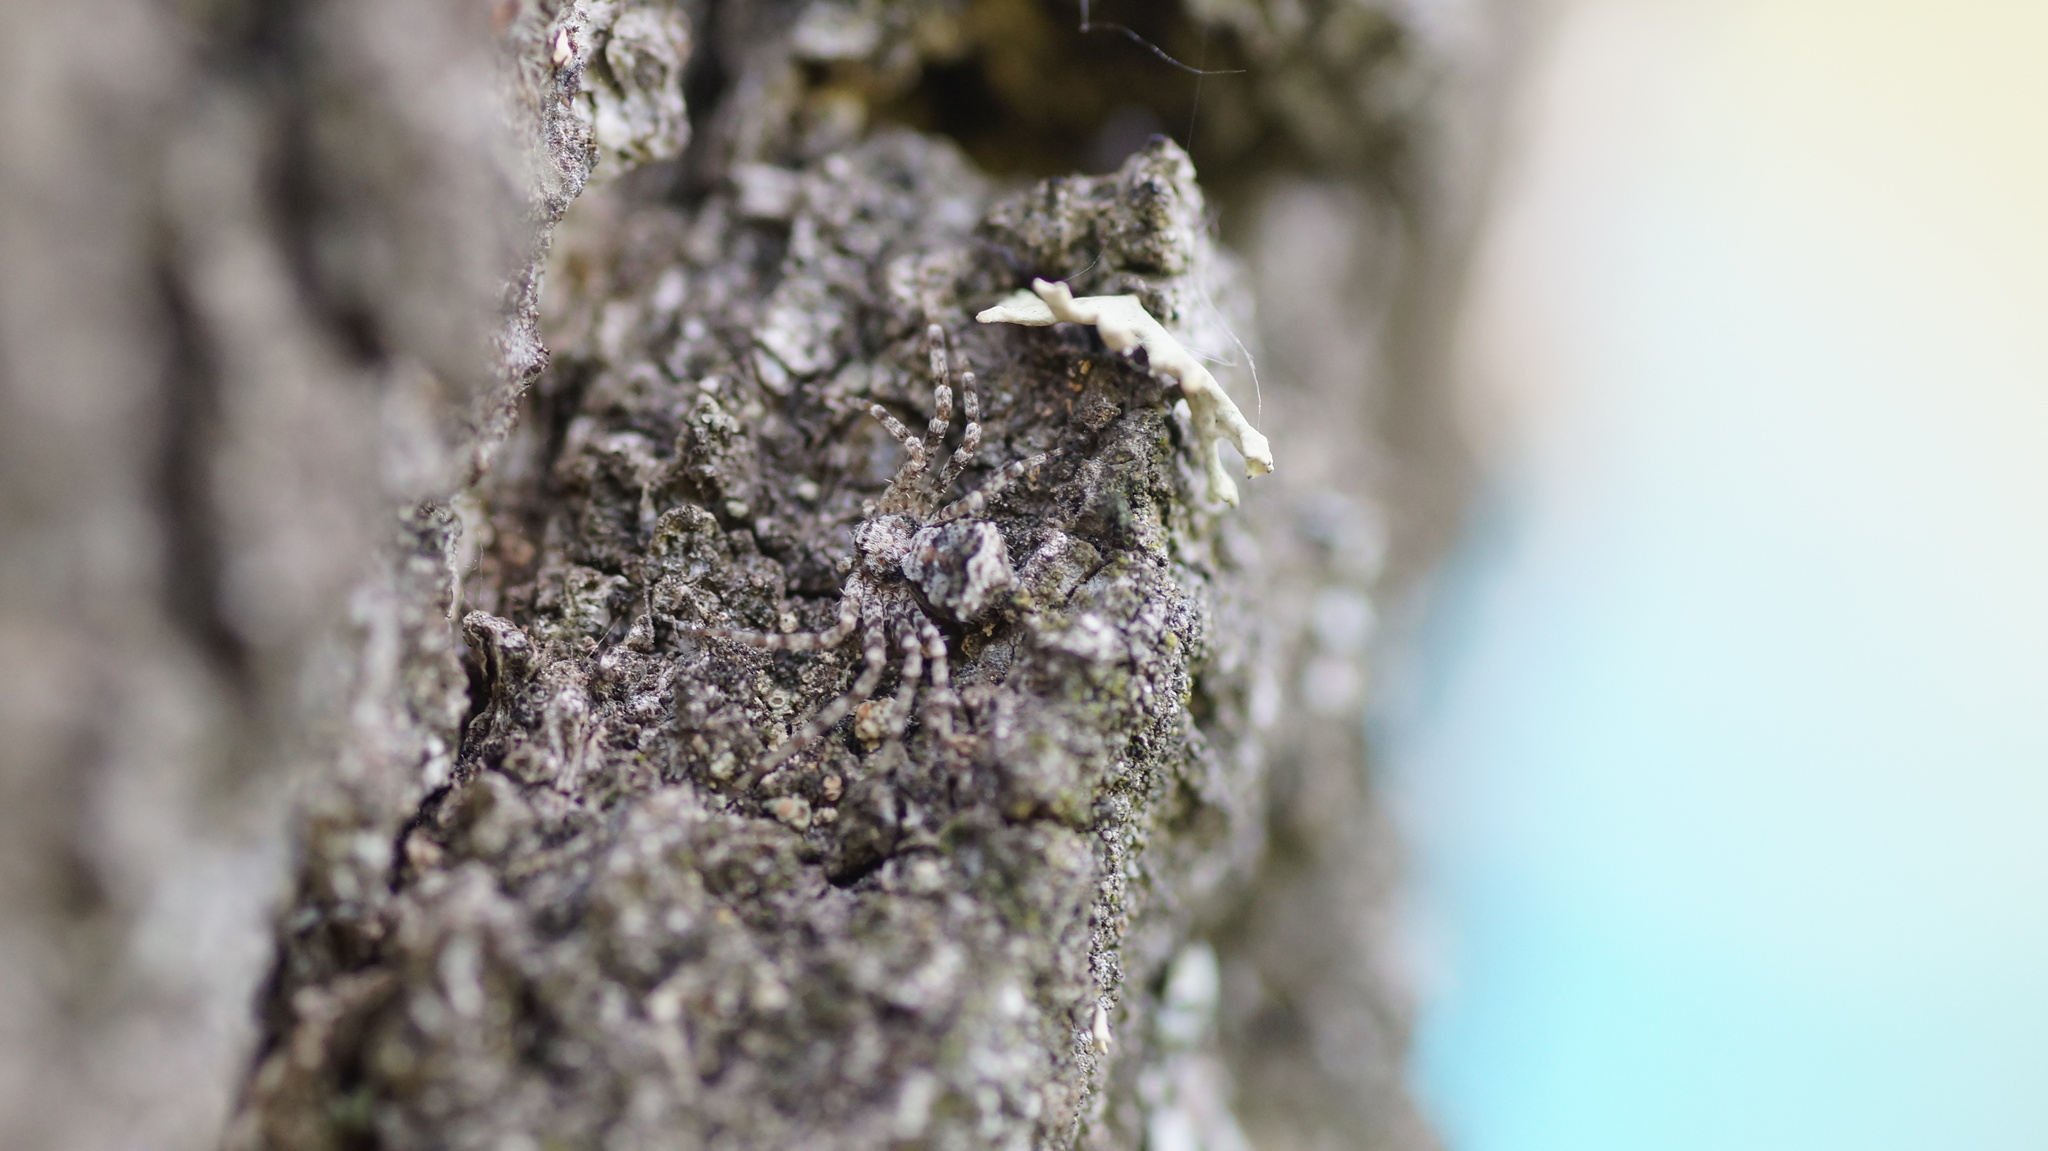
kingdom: Animalia
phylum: Arthropoda
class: Arachnida
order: Araneae
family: Philodromidae
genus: Philodromus
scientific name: Philodromus poecilus
